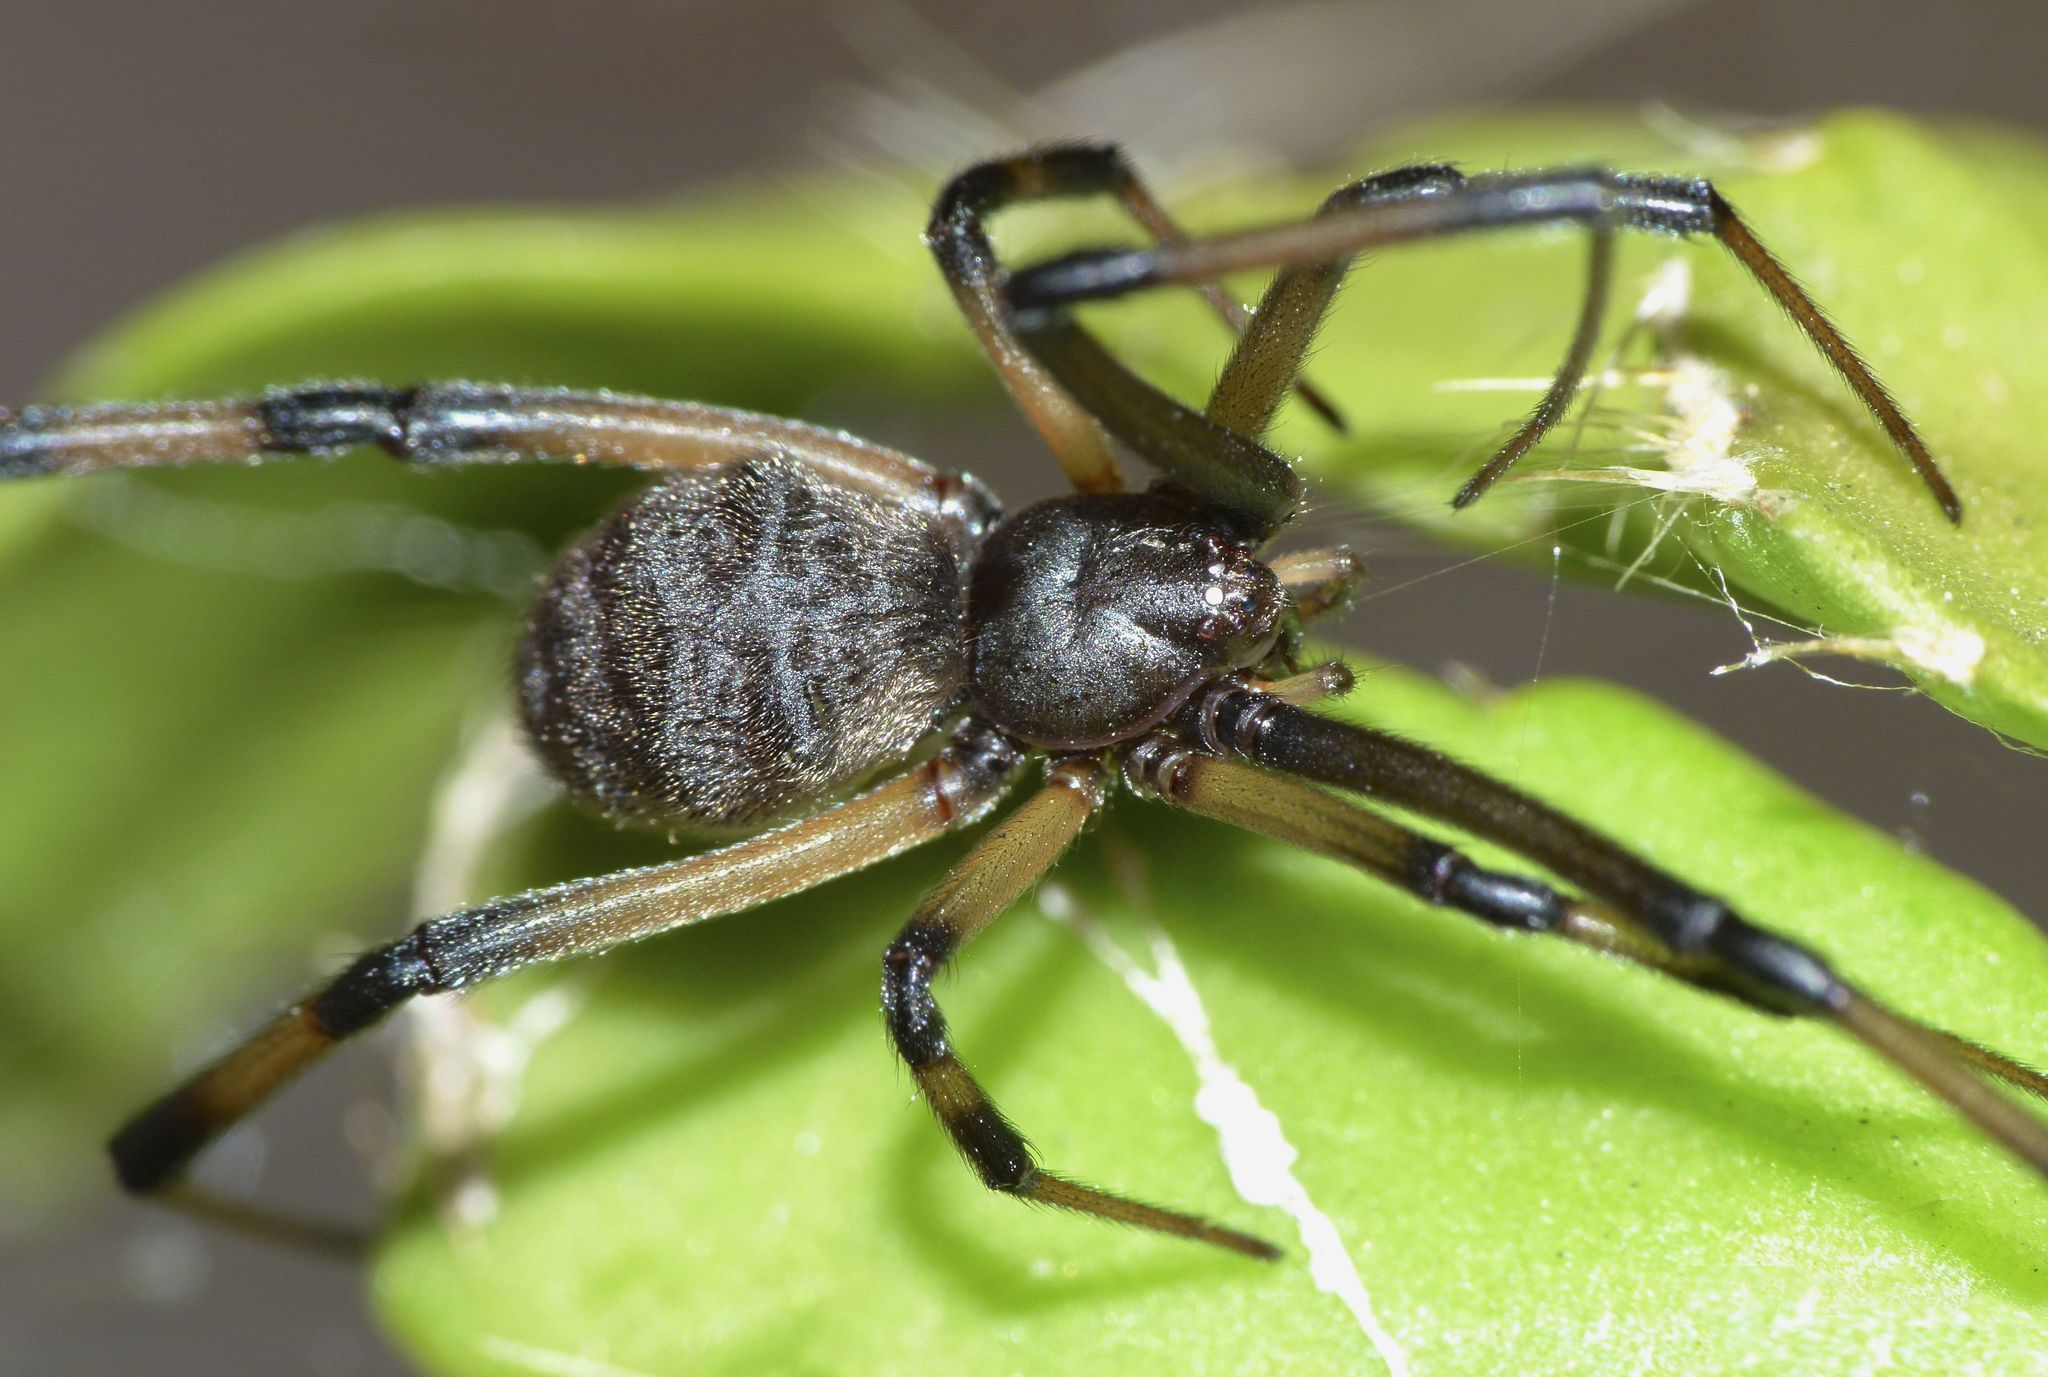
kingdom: Animalia
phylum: Arthropoda
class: Arachnida
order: Araneae
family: Theridiidae
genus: Latrodectus
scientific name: Latrodectus geometricus
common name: Brown widow spider
